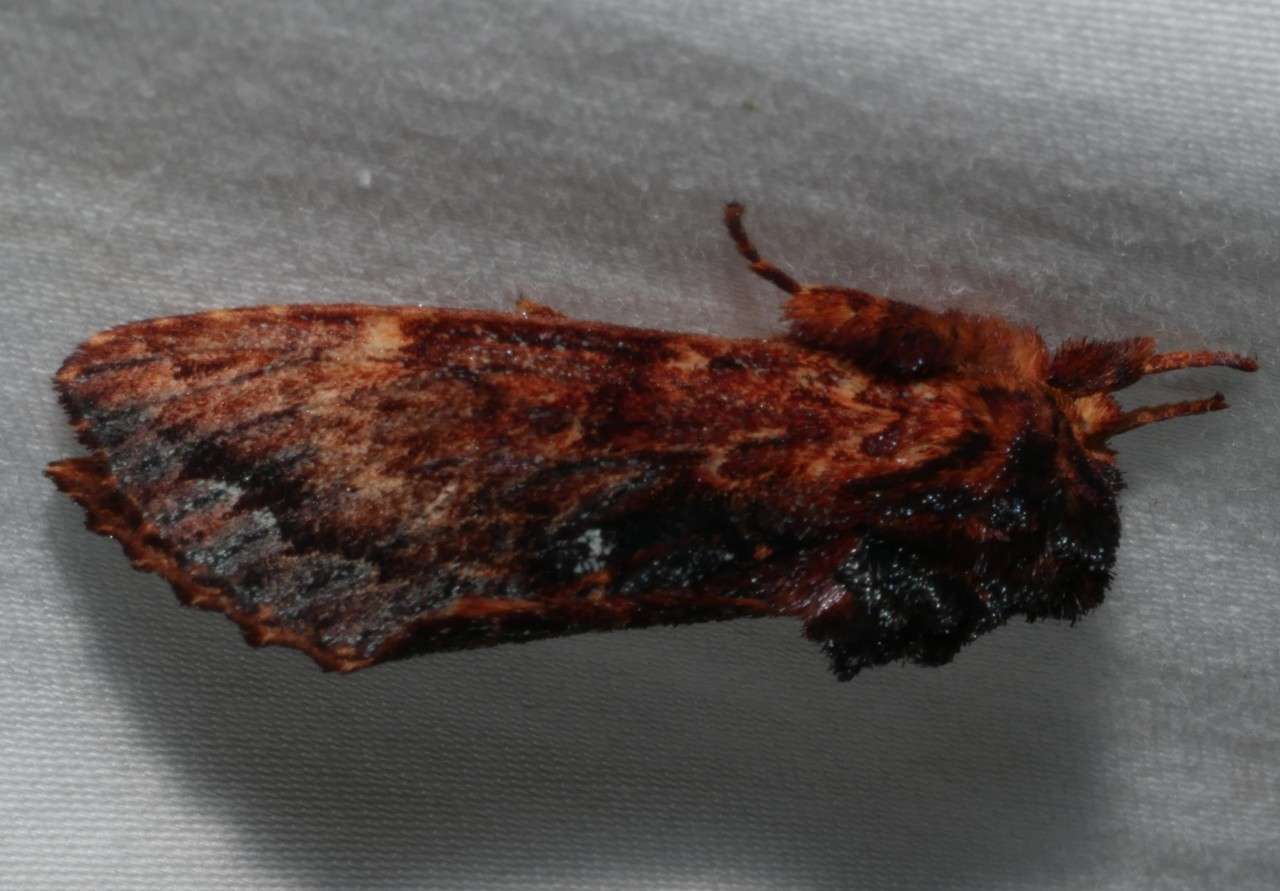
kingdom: Animalia
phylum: Arthropoda
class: Insecta
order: Lepidoptera
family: Notodontidae
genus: Sorama
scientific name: Sorama bicolor
